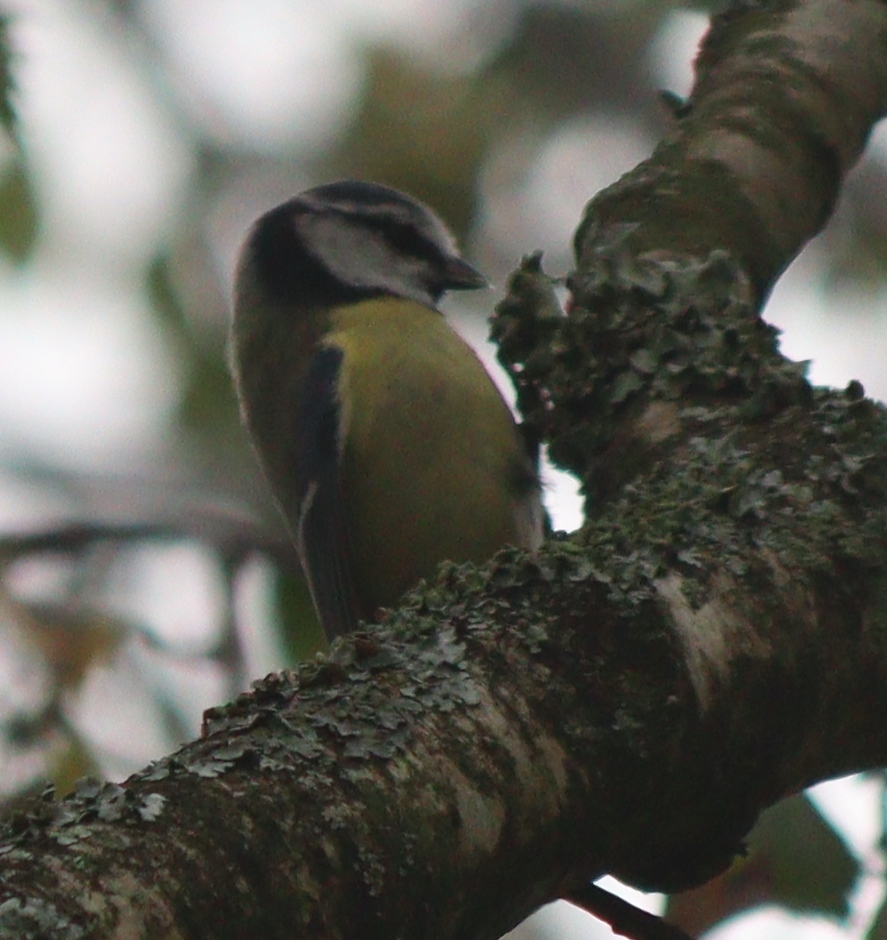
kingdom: Animalia
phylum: Chordata
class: Aves
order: Passeriformes
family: Paridae
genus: Cyanistes
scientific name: Cyanistes caeruleus
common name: Eurasian blue tit
